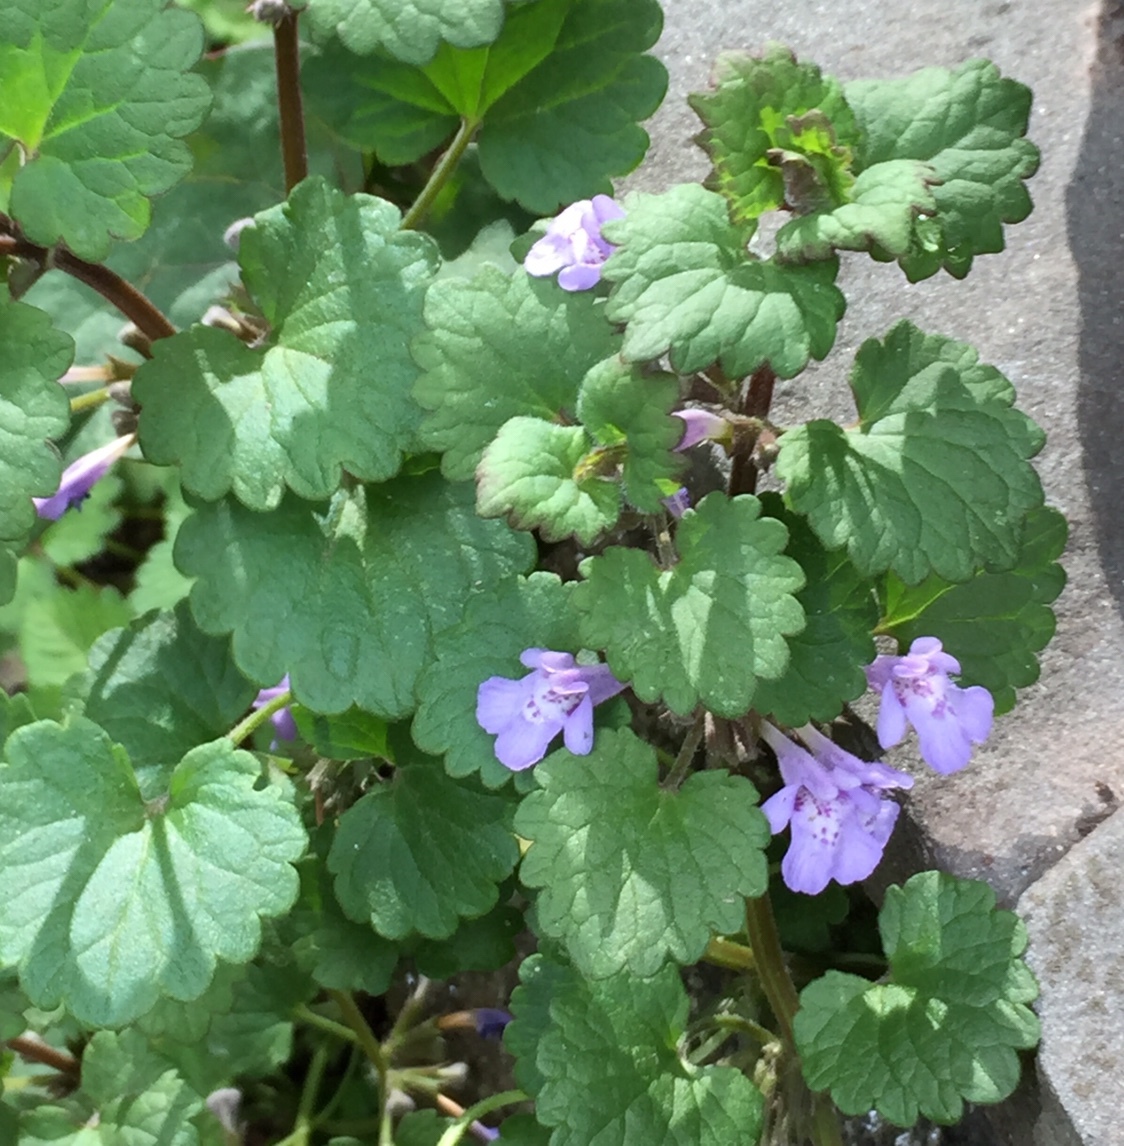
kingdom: Plantae
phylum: Tracheophyta
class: Magnoliopsida
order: Lamiales
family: Lamiaceae
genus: Glechoma
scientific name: Glechoma hederacea
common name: Ground ivy
